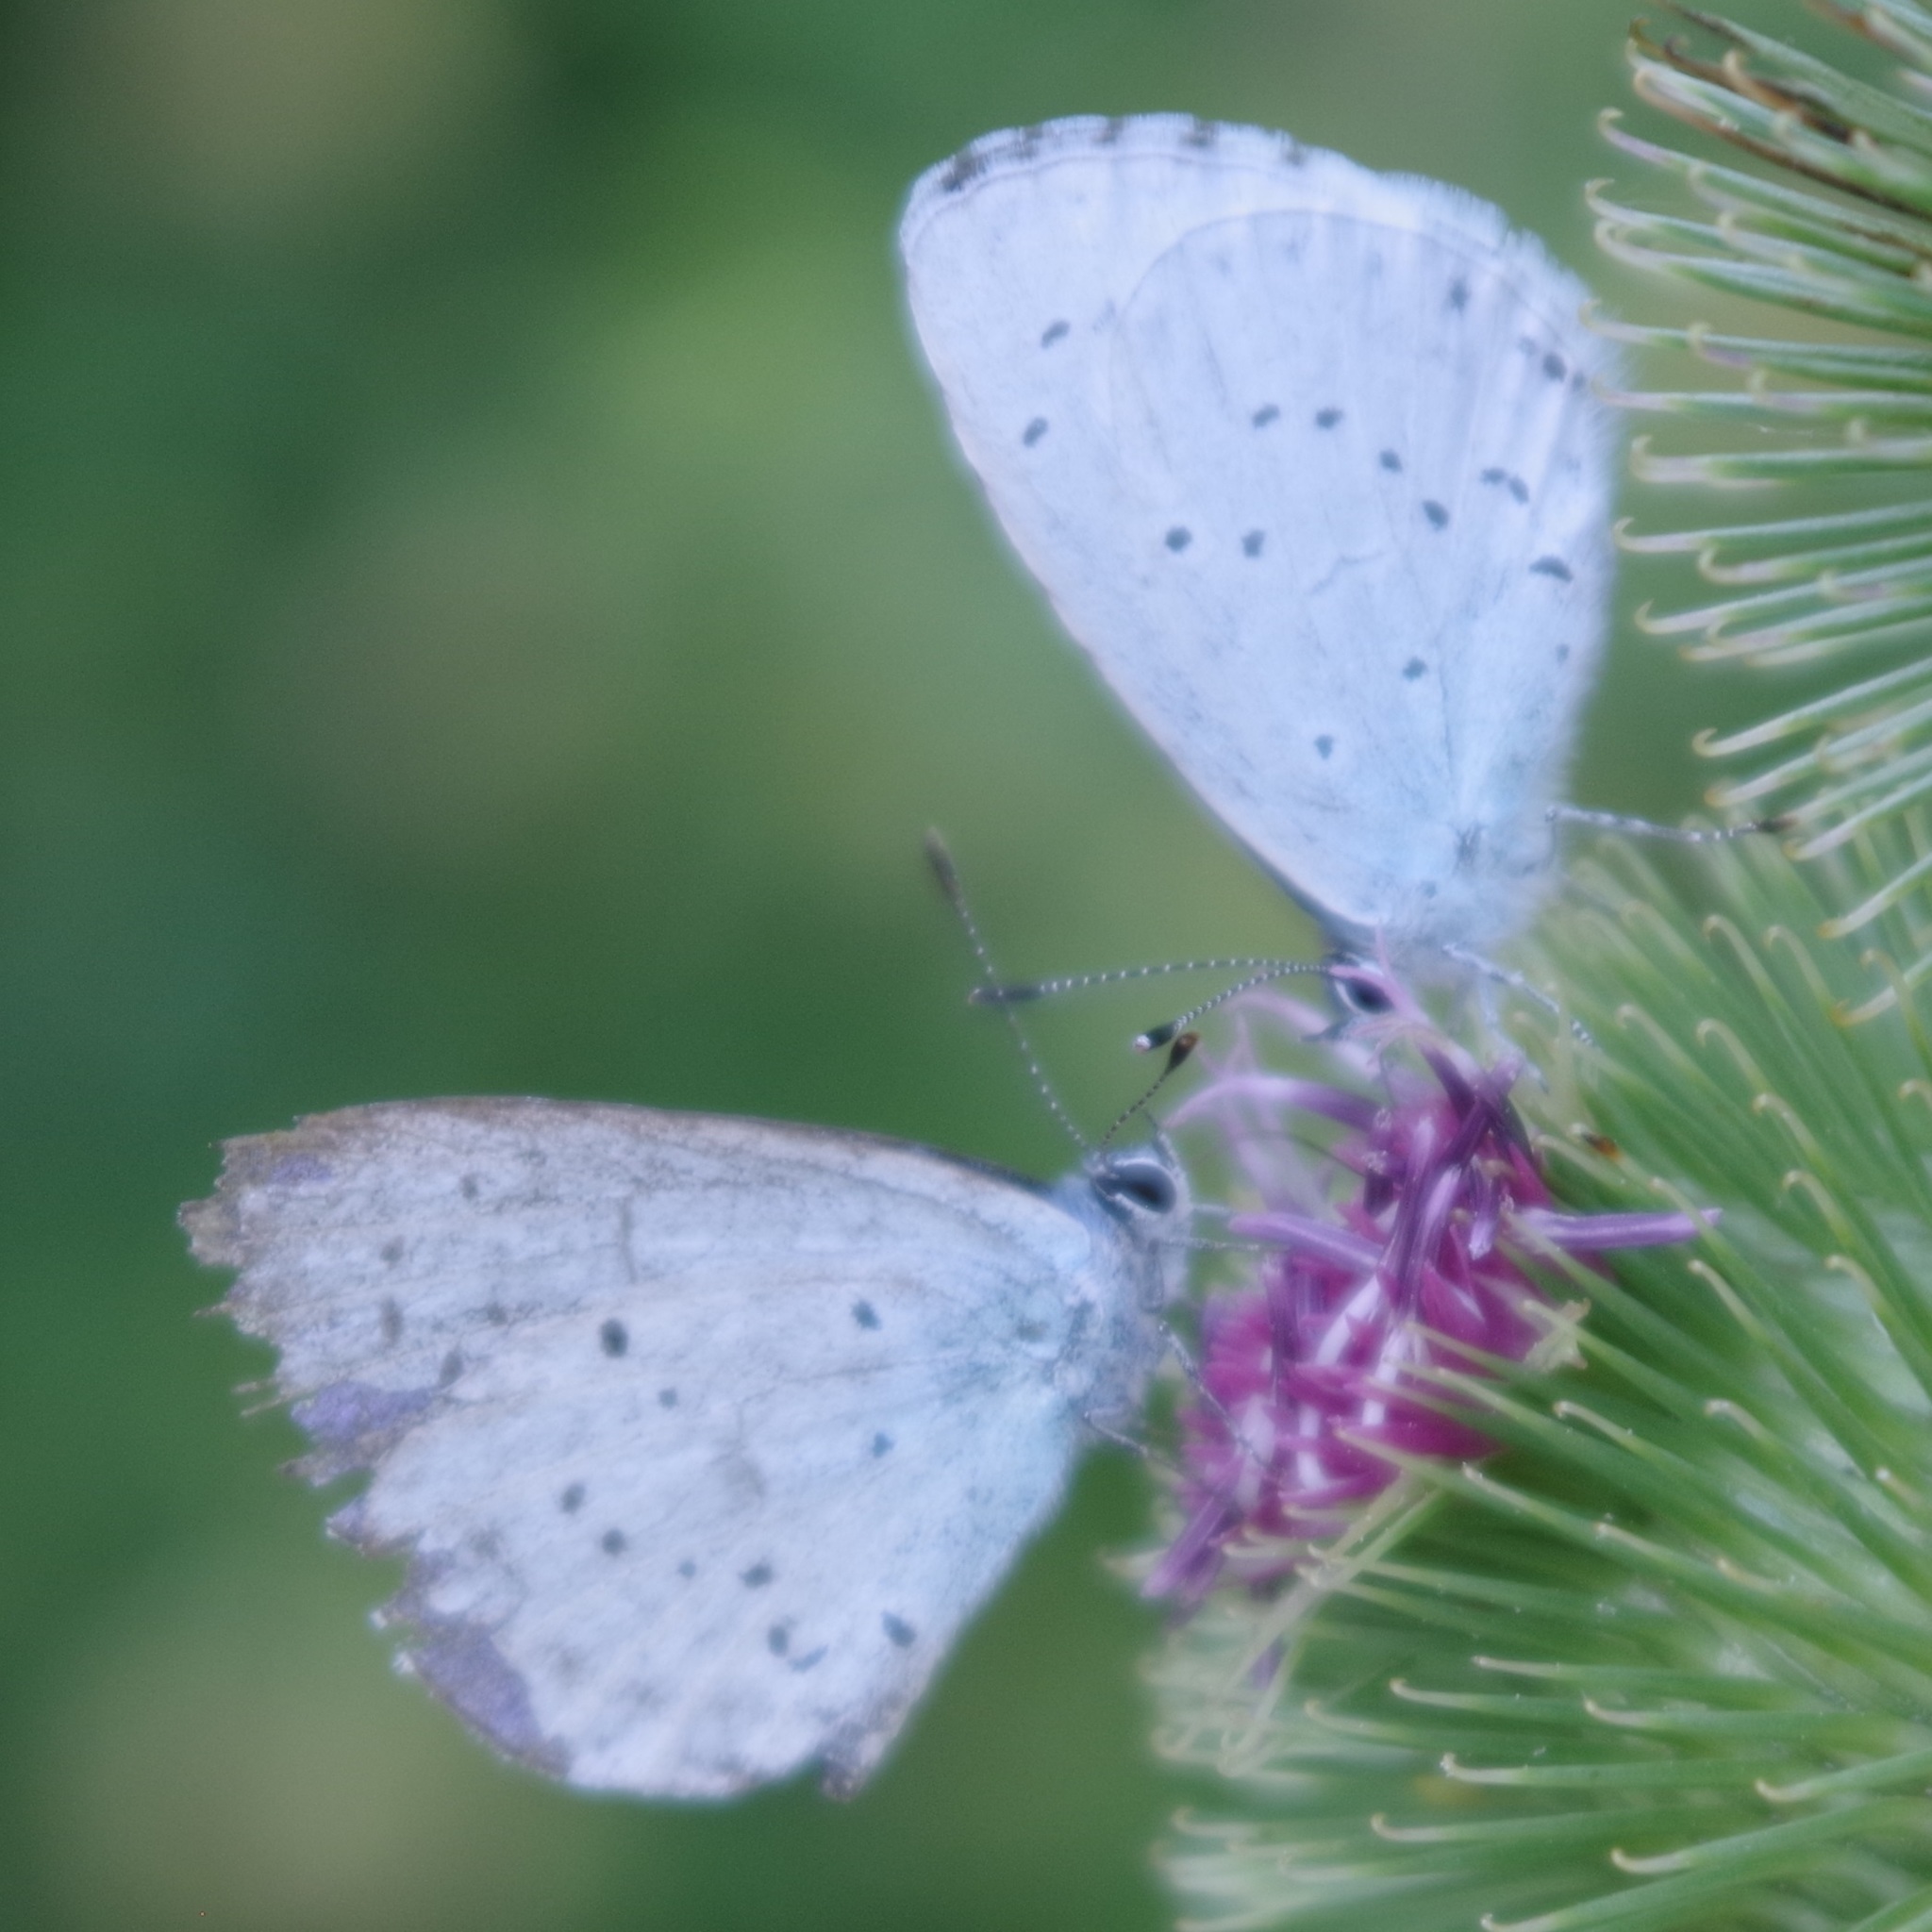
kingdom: Animalia
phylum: Arthropoda
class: Insecta
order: Lepidoptera
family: Lycaenidae
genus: Celastrina
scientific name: Celastrina argiolus
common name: Holly blue
